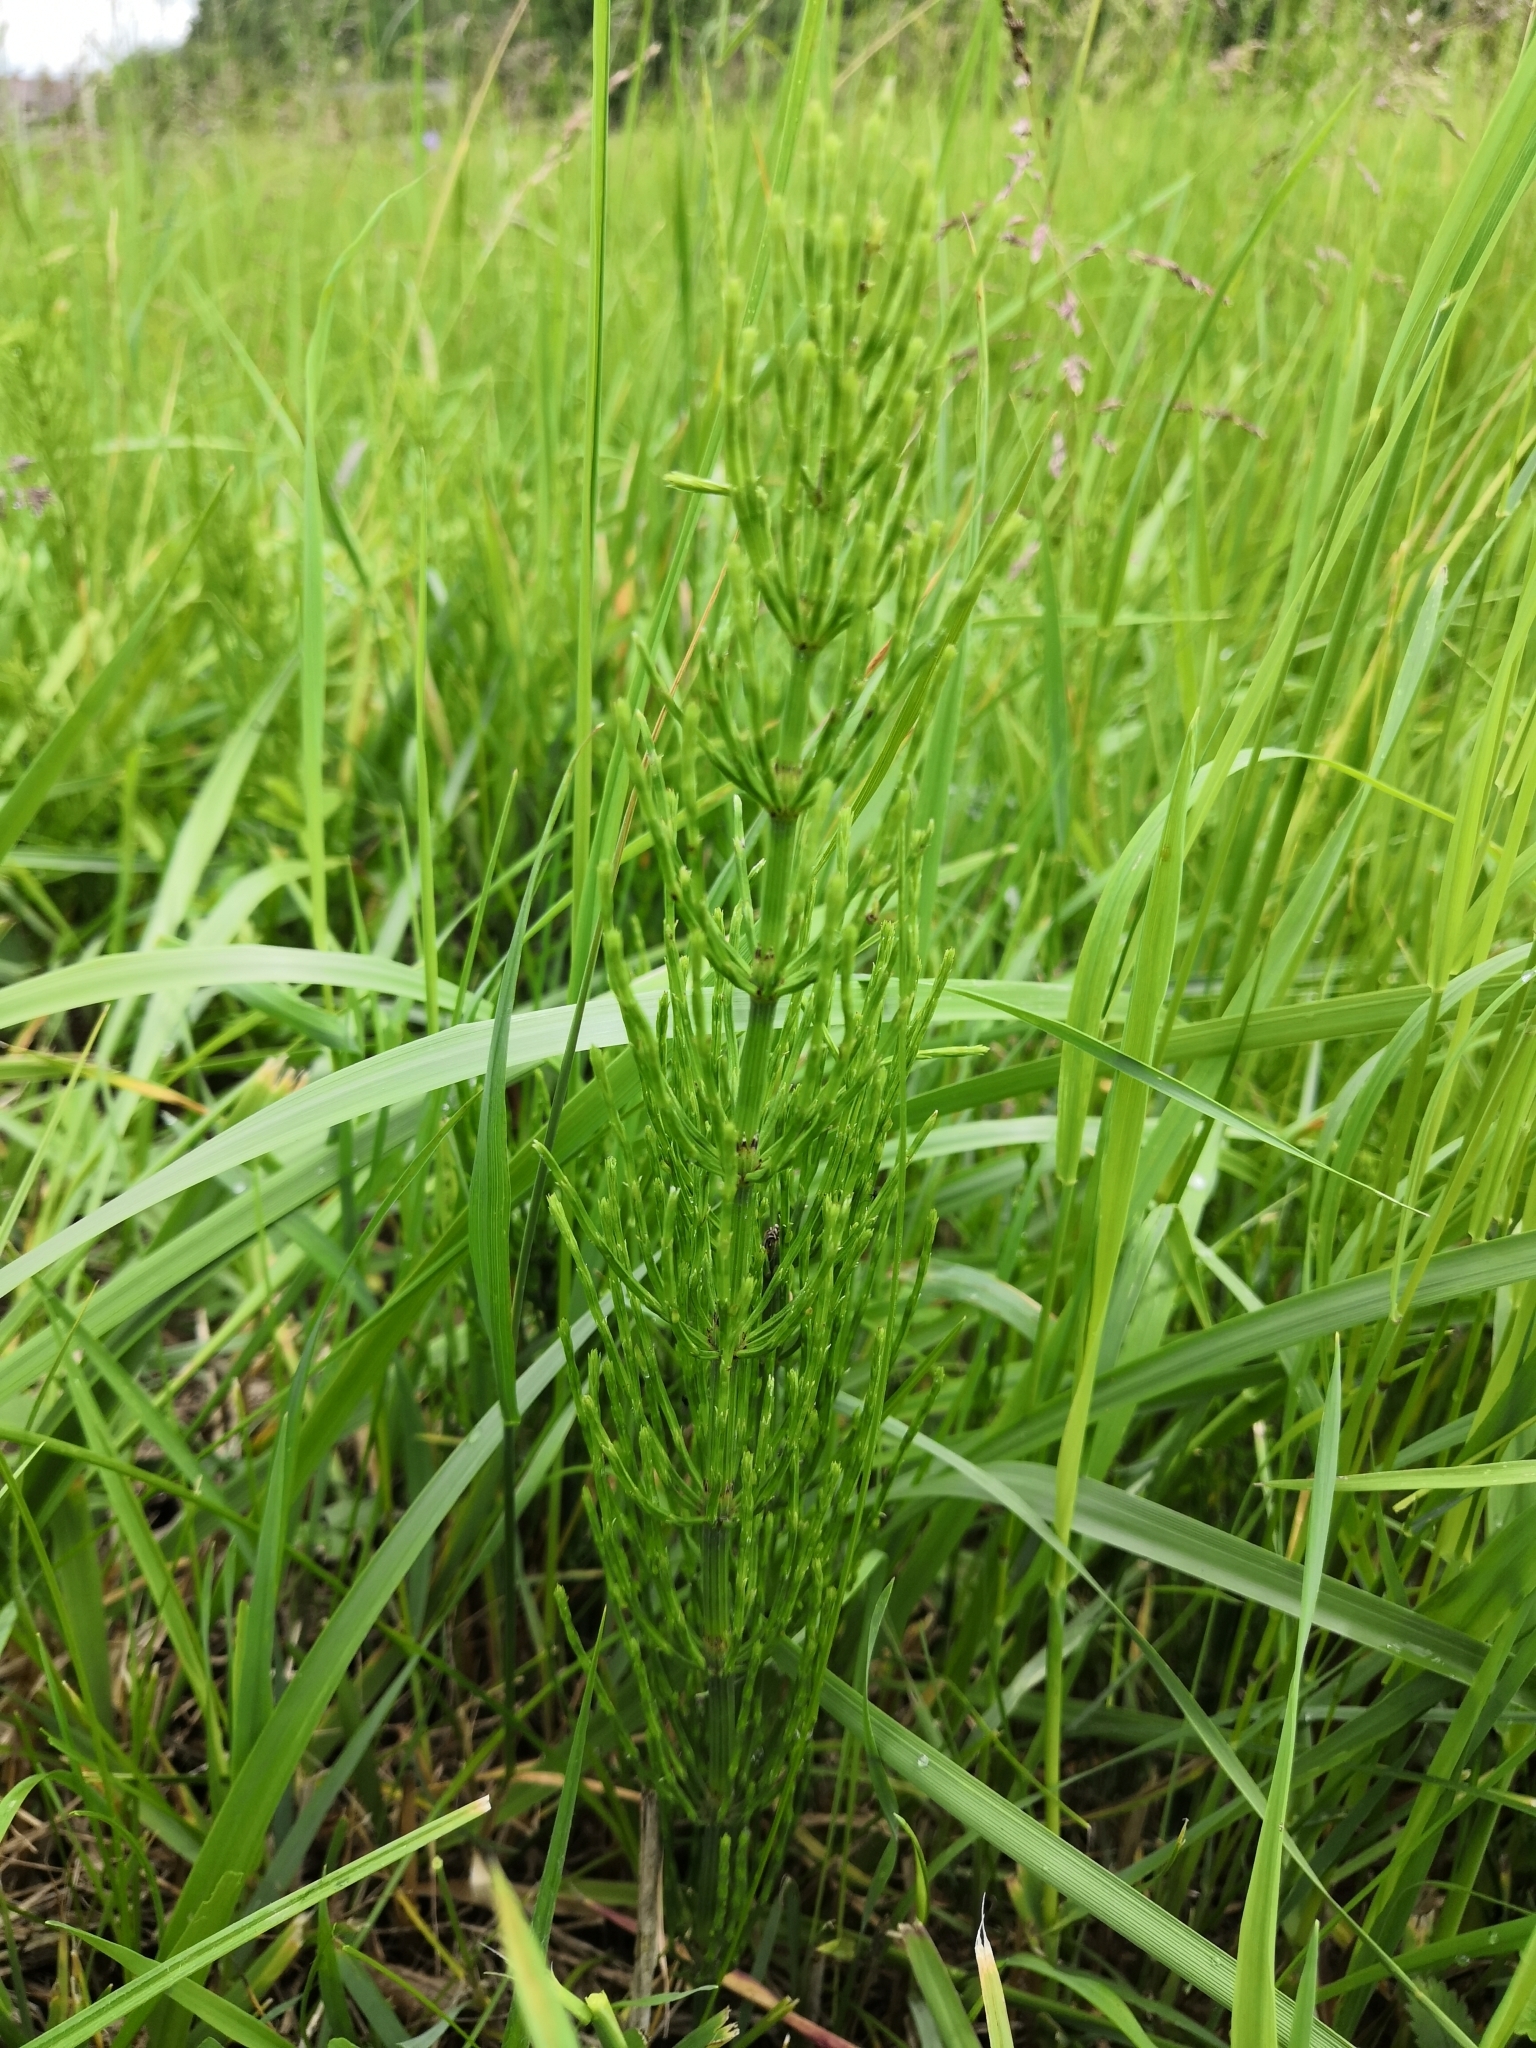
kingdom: Plantae
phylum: Tracheophyta
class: Polypodiopsida
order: Equisetales
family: Equisetaceae
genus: Equisetum
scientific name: Equisetum arvense
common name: Field horsetail
